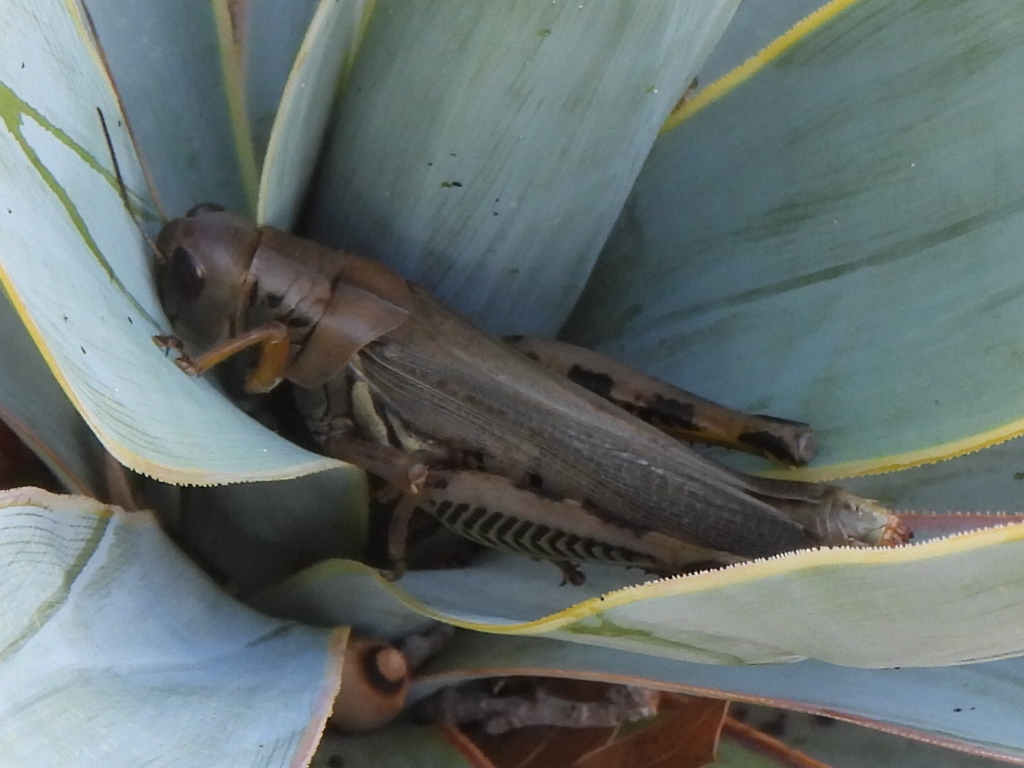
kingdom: Animalia
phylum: Arthropoda
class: Insecta
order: Orthoptera
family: Acrididae
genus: Melanoplus
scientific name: Melanoplus differentialis
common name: Differential grasshopper
